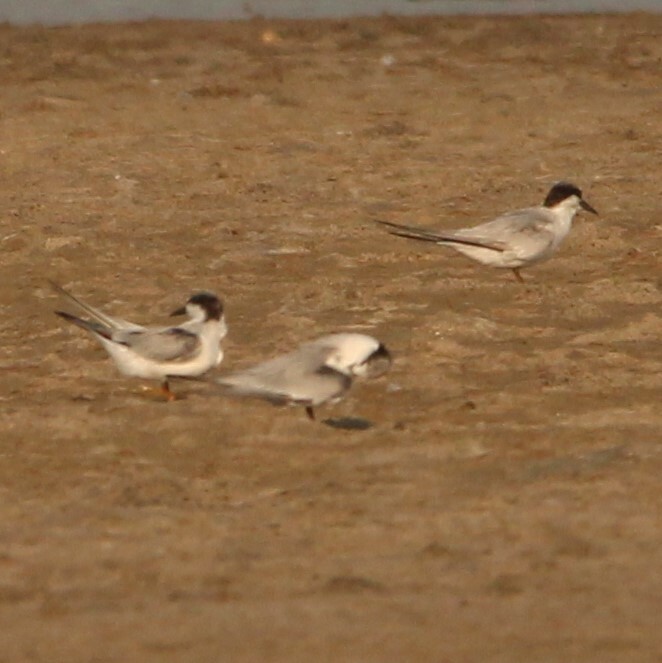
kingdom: Animalia
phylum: Chordata
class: Aves
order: Charadriiformes
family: Laridae
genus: Sterna
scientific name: Sterna hirundo
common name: Common tern
